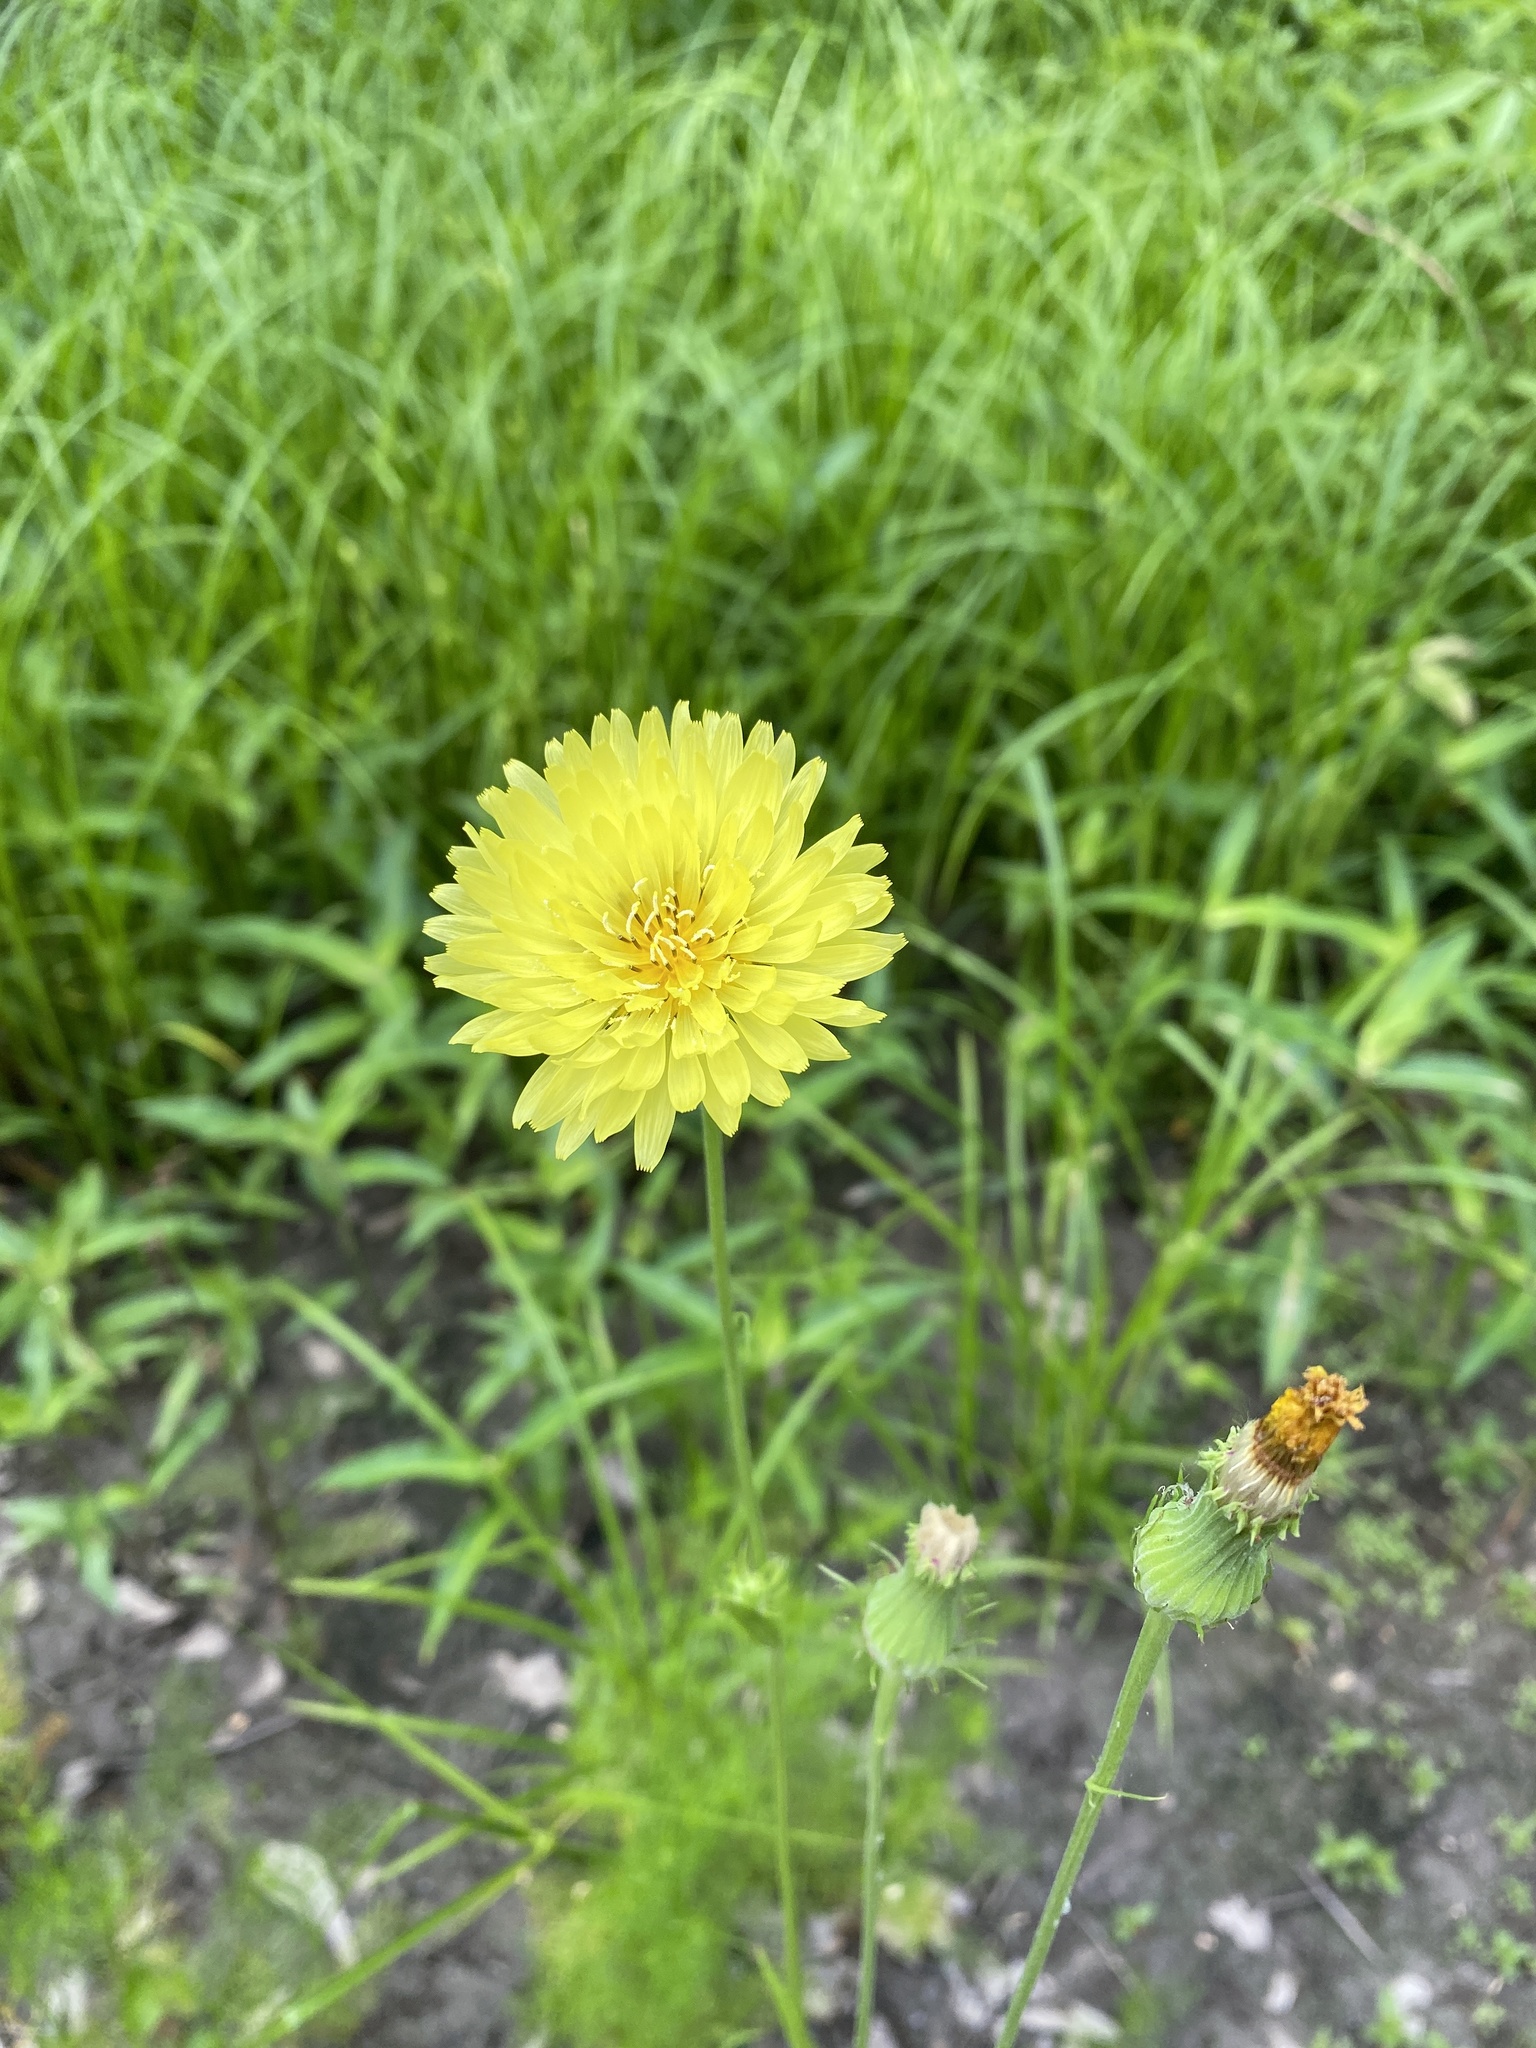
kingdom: Plantae
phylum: Tracheophyta
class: Magnoliopsida
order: Asterales
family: Asteraceae
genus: Pyrrhopappus
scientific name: Pyrrhopappus carolinianus
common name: Carolina desert-chicory
